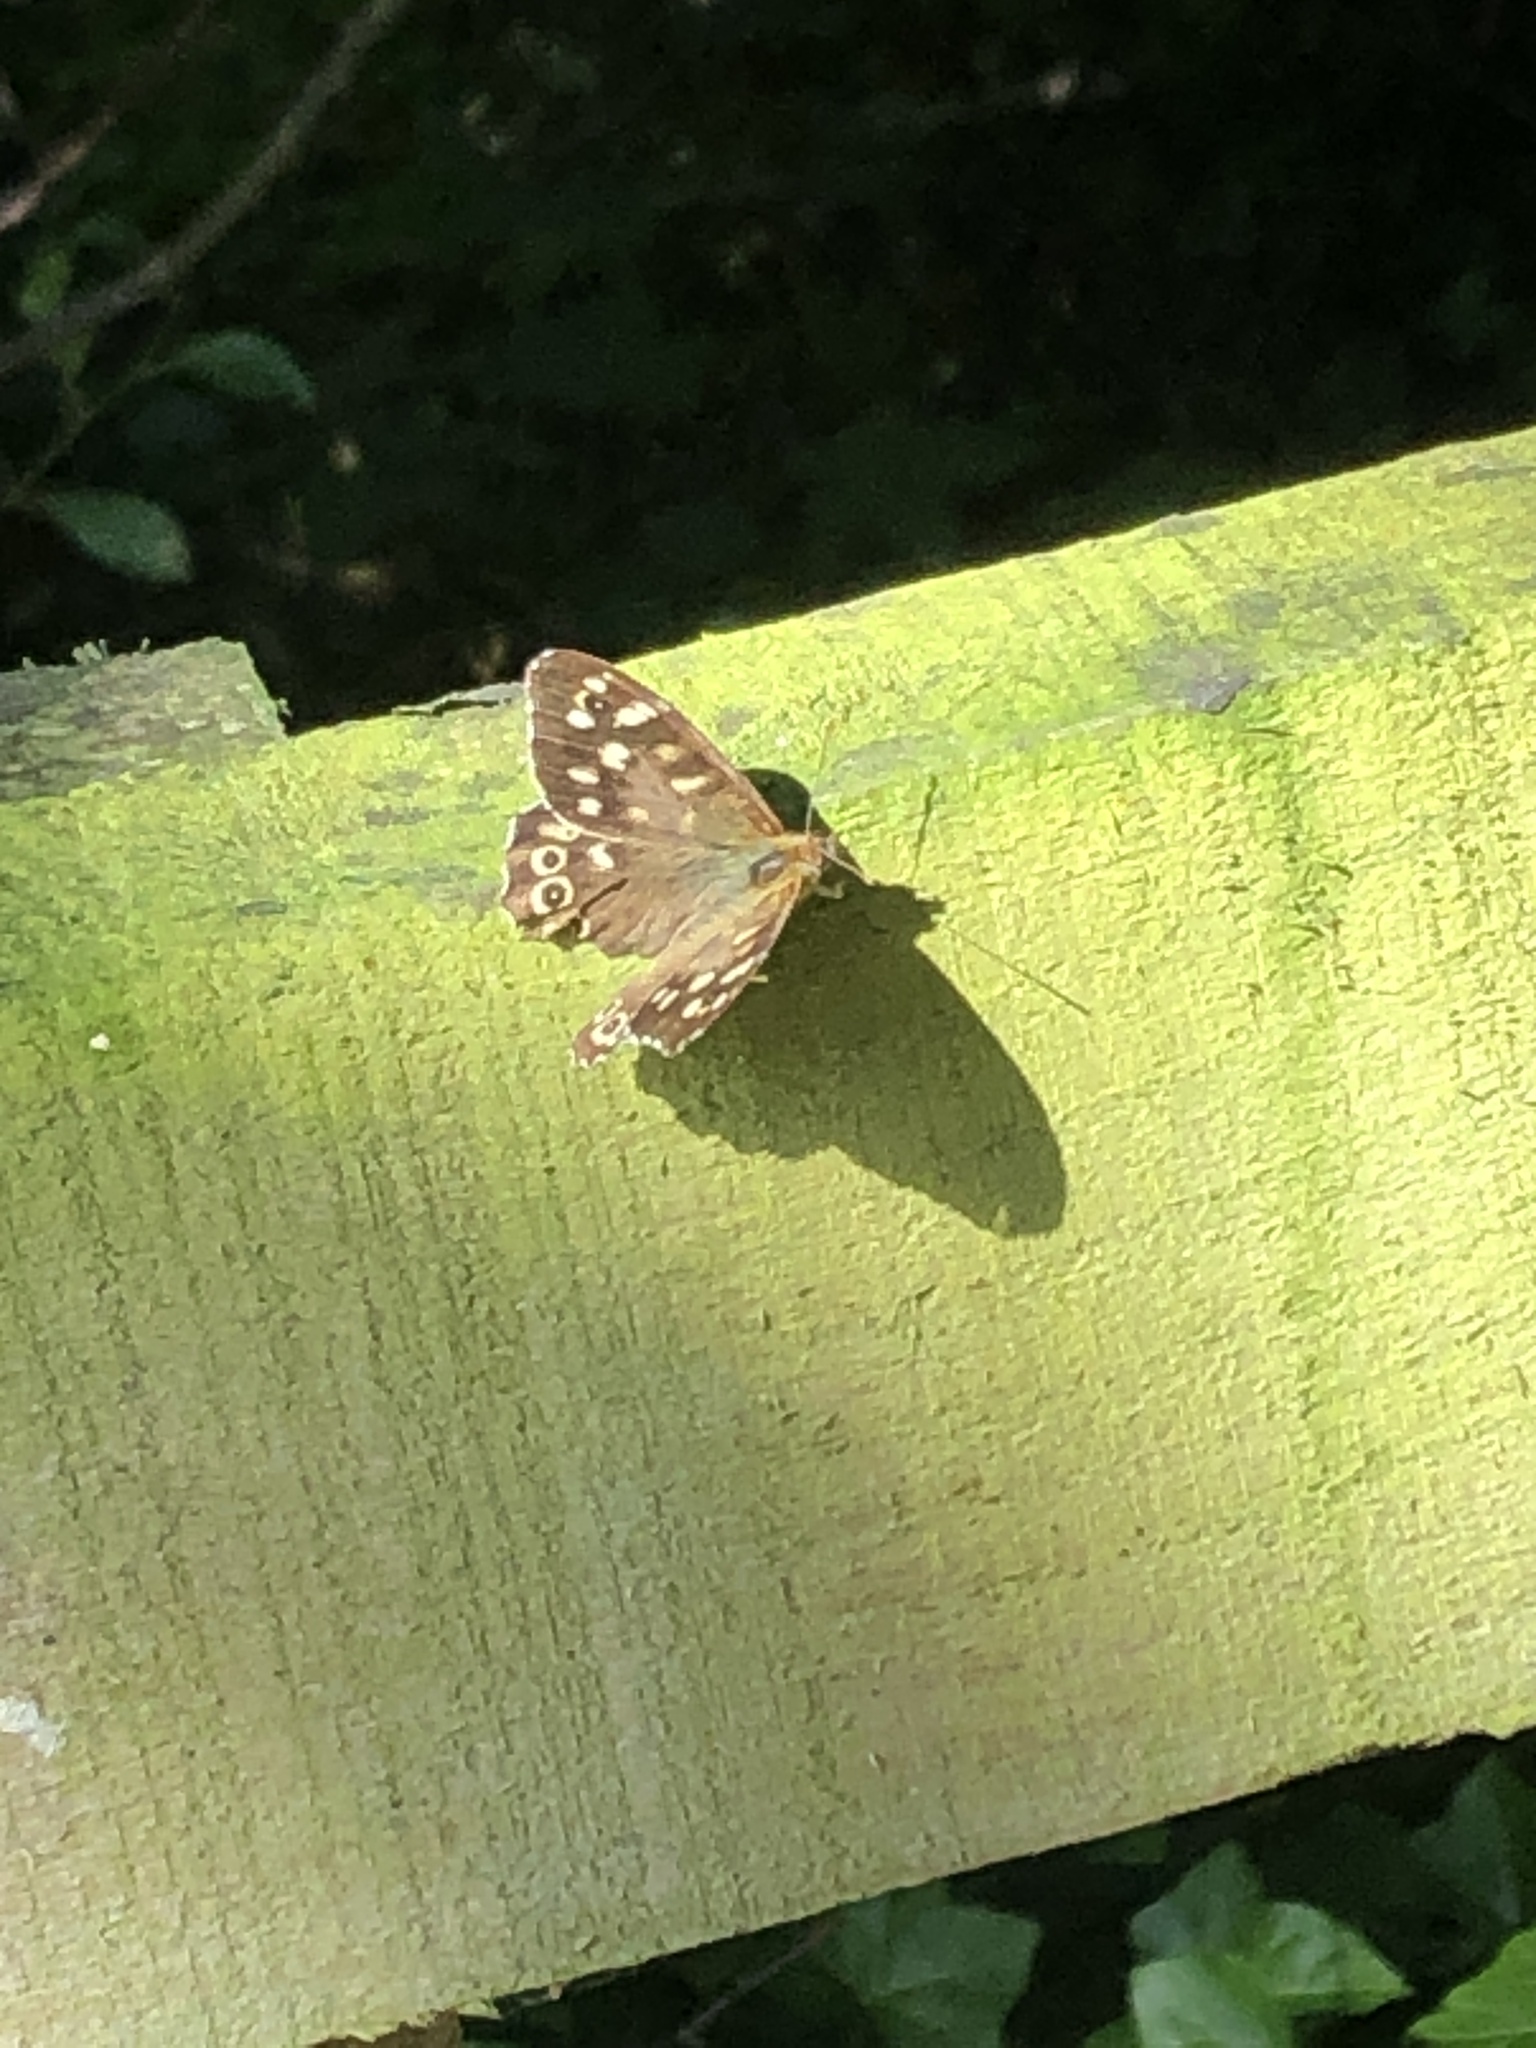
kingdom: Animalia
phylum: Arthropoda
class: Insecta
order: Lepidoptera
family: Nymphalidae
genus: Pararge
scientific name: Pararge aegeria
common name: Speckled wood
